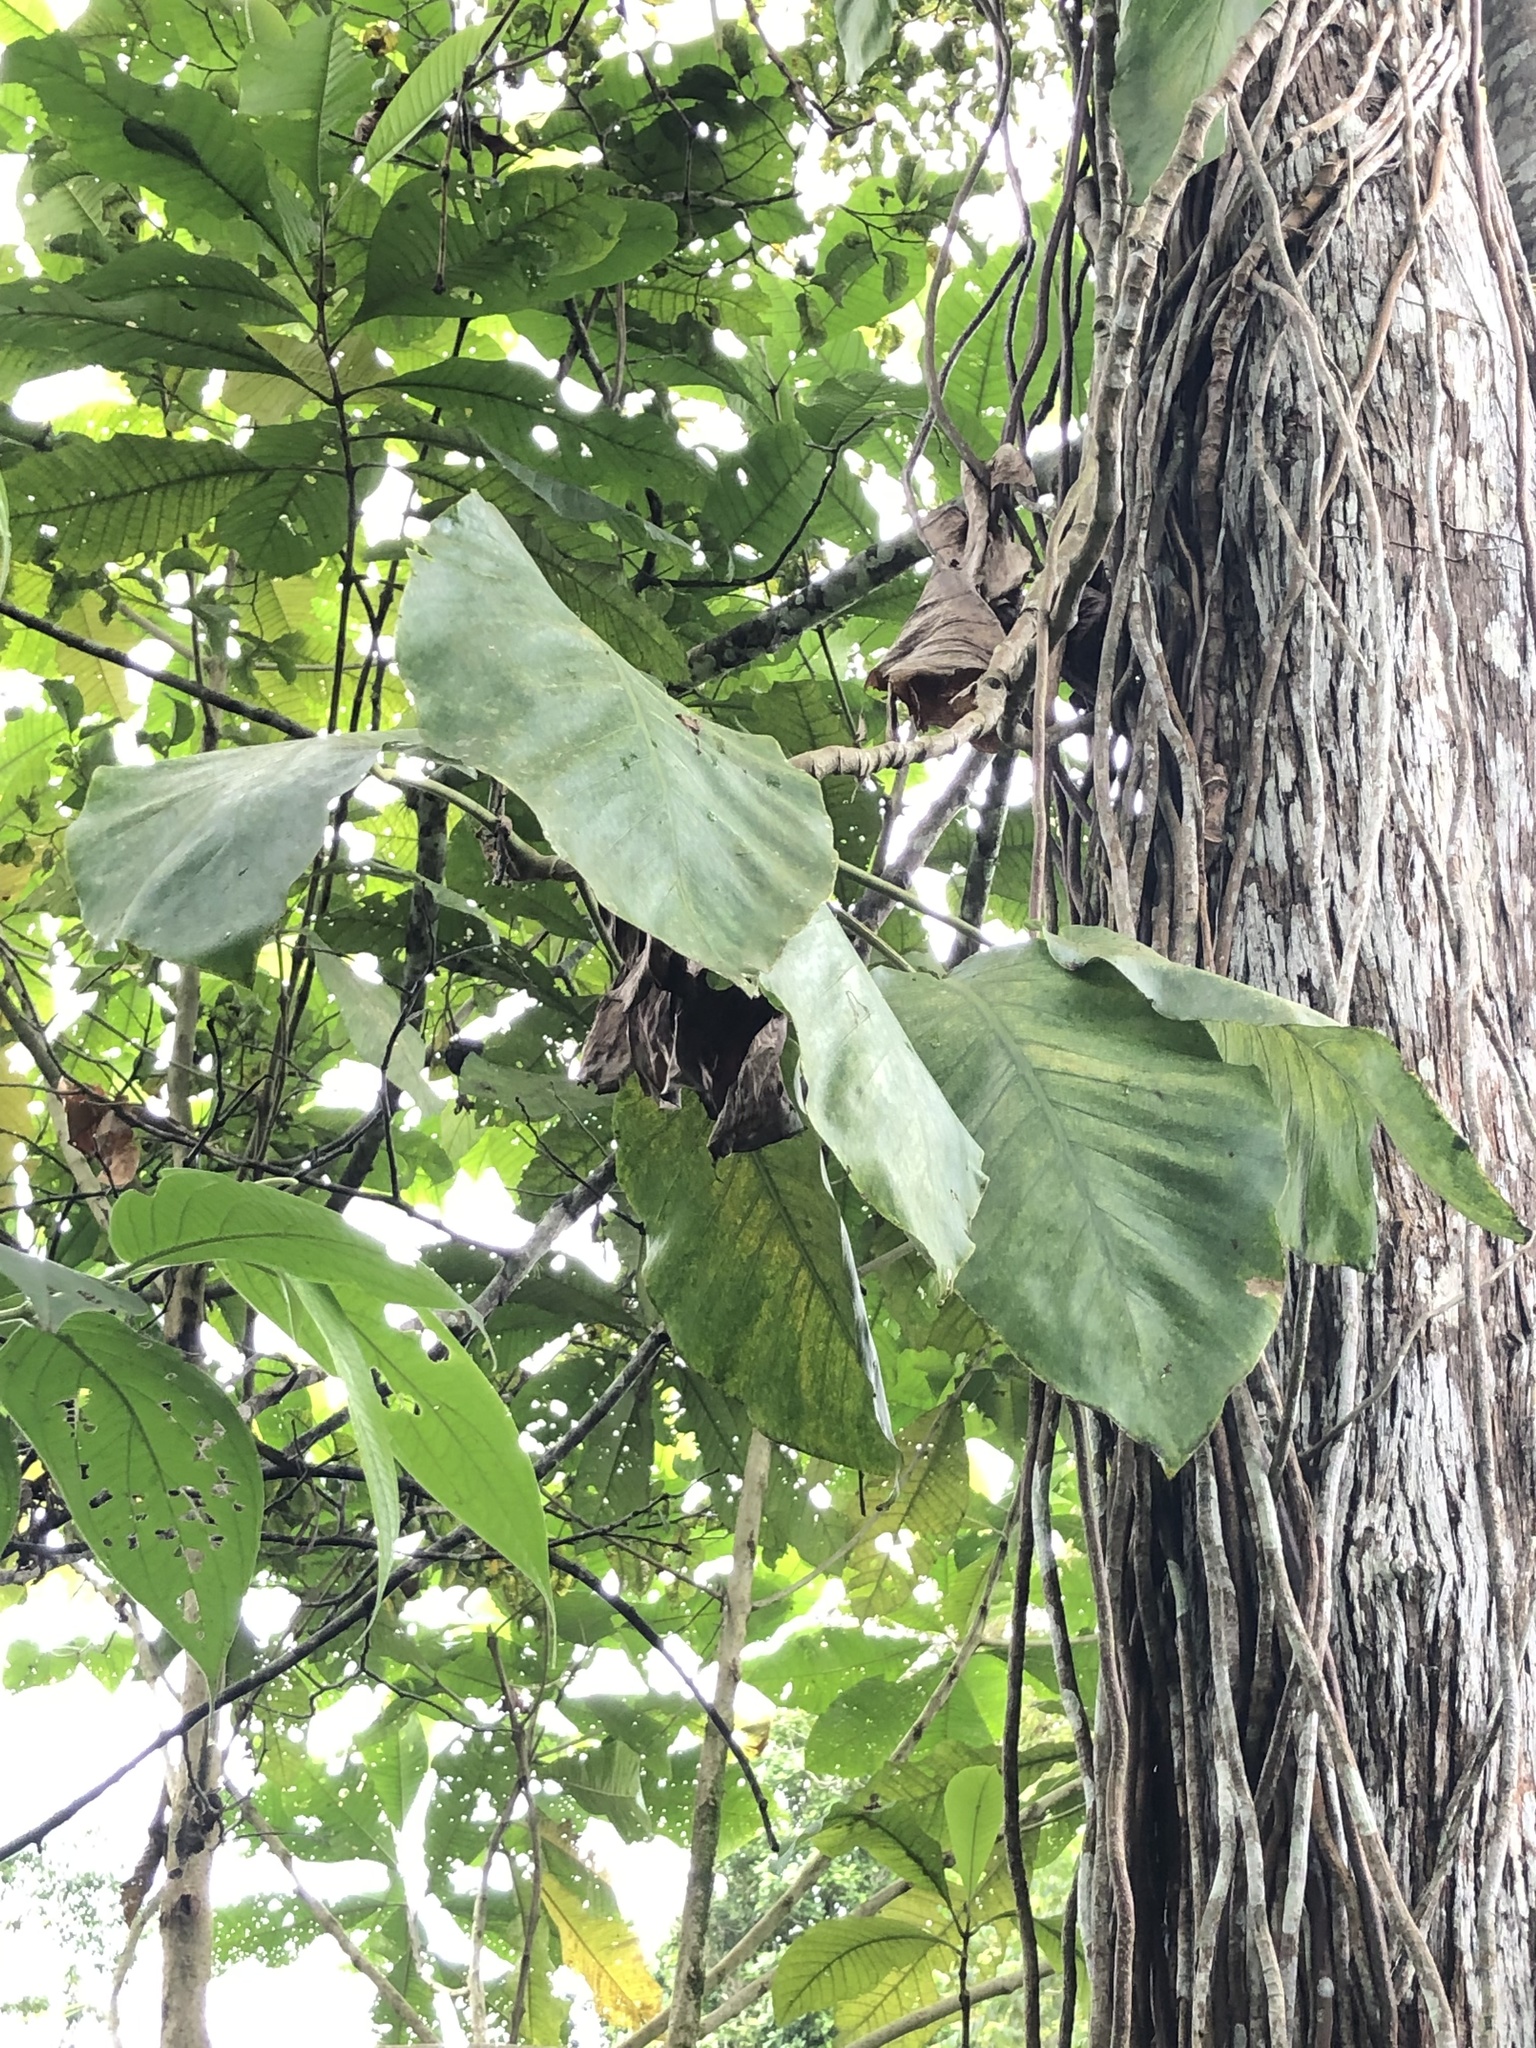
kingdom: Plantae
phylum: Tracheophyta
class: Liliopsida
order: Alismatales
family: Araceae
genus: Monstera
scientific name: Monstera dubia
